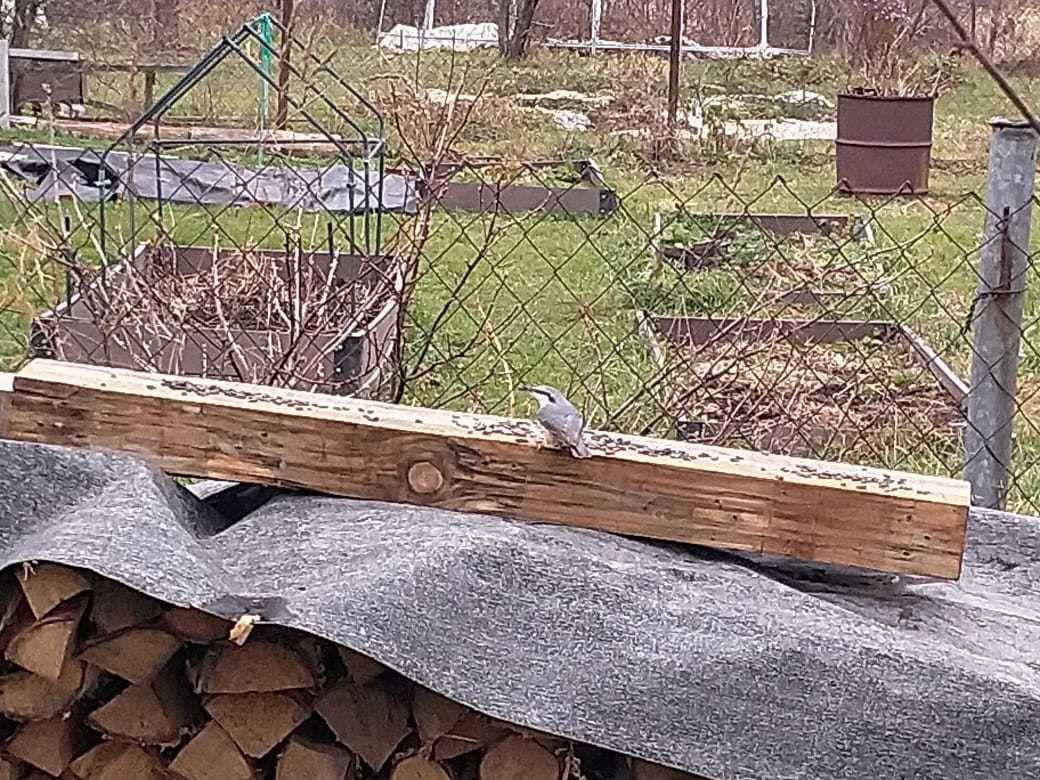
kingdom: Animalia
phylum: Chordata
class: Aves
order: Passeriformes
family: Sittidae
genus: Sitta
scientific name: Sitta europaea
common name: Eurasian nuthatch
